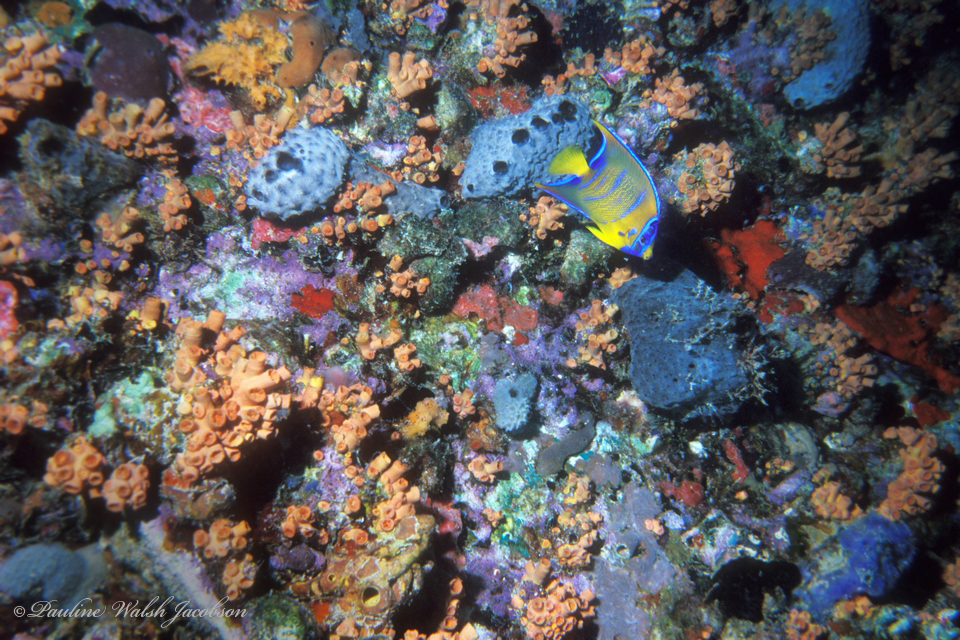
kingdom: Animalia
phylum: Chordata
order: Perciformes
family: Pomacanthidae
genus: Holacanthus
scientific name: Holacanthus ciliaris
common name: Queen angelfish
